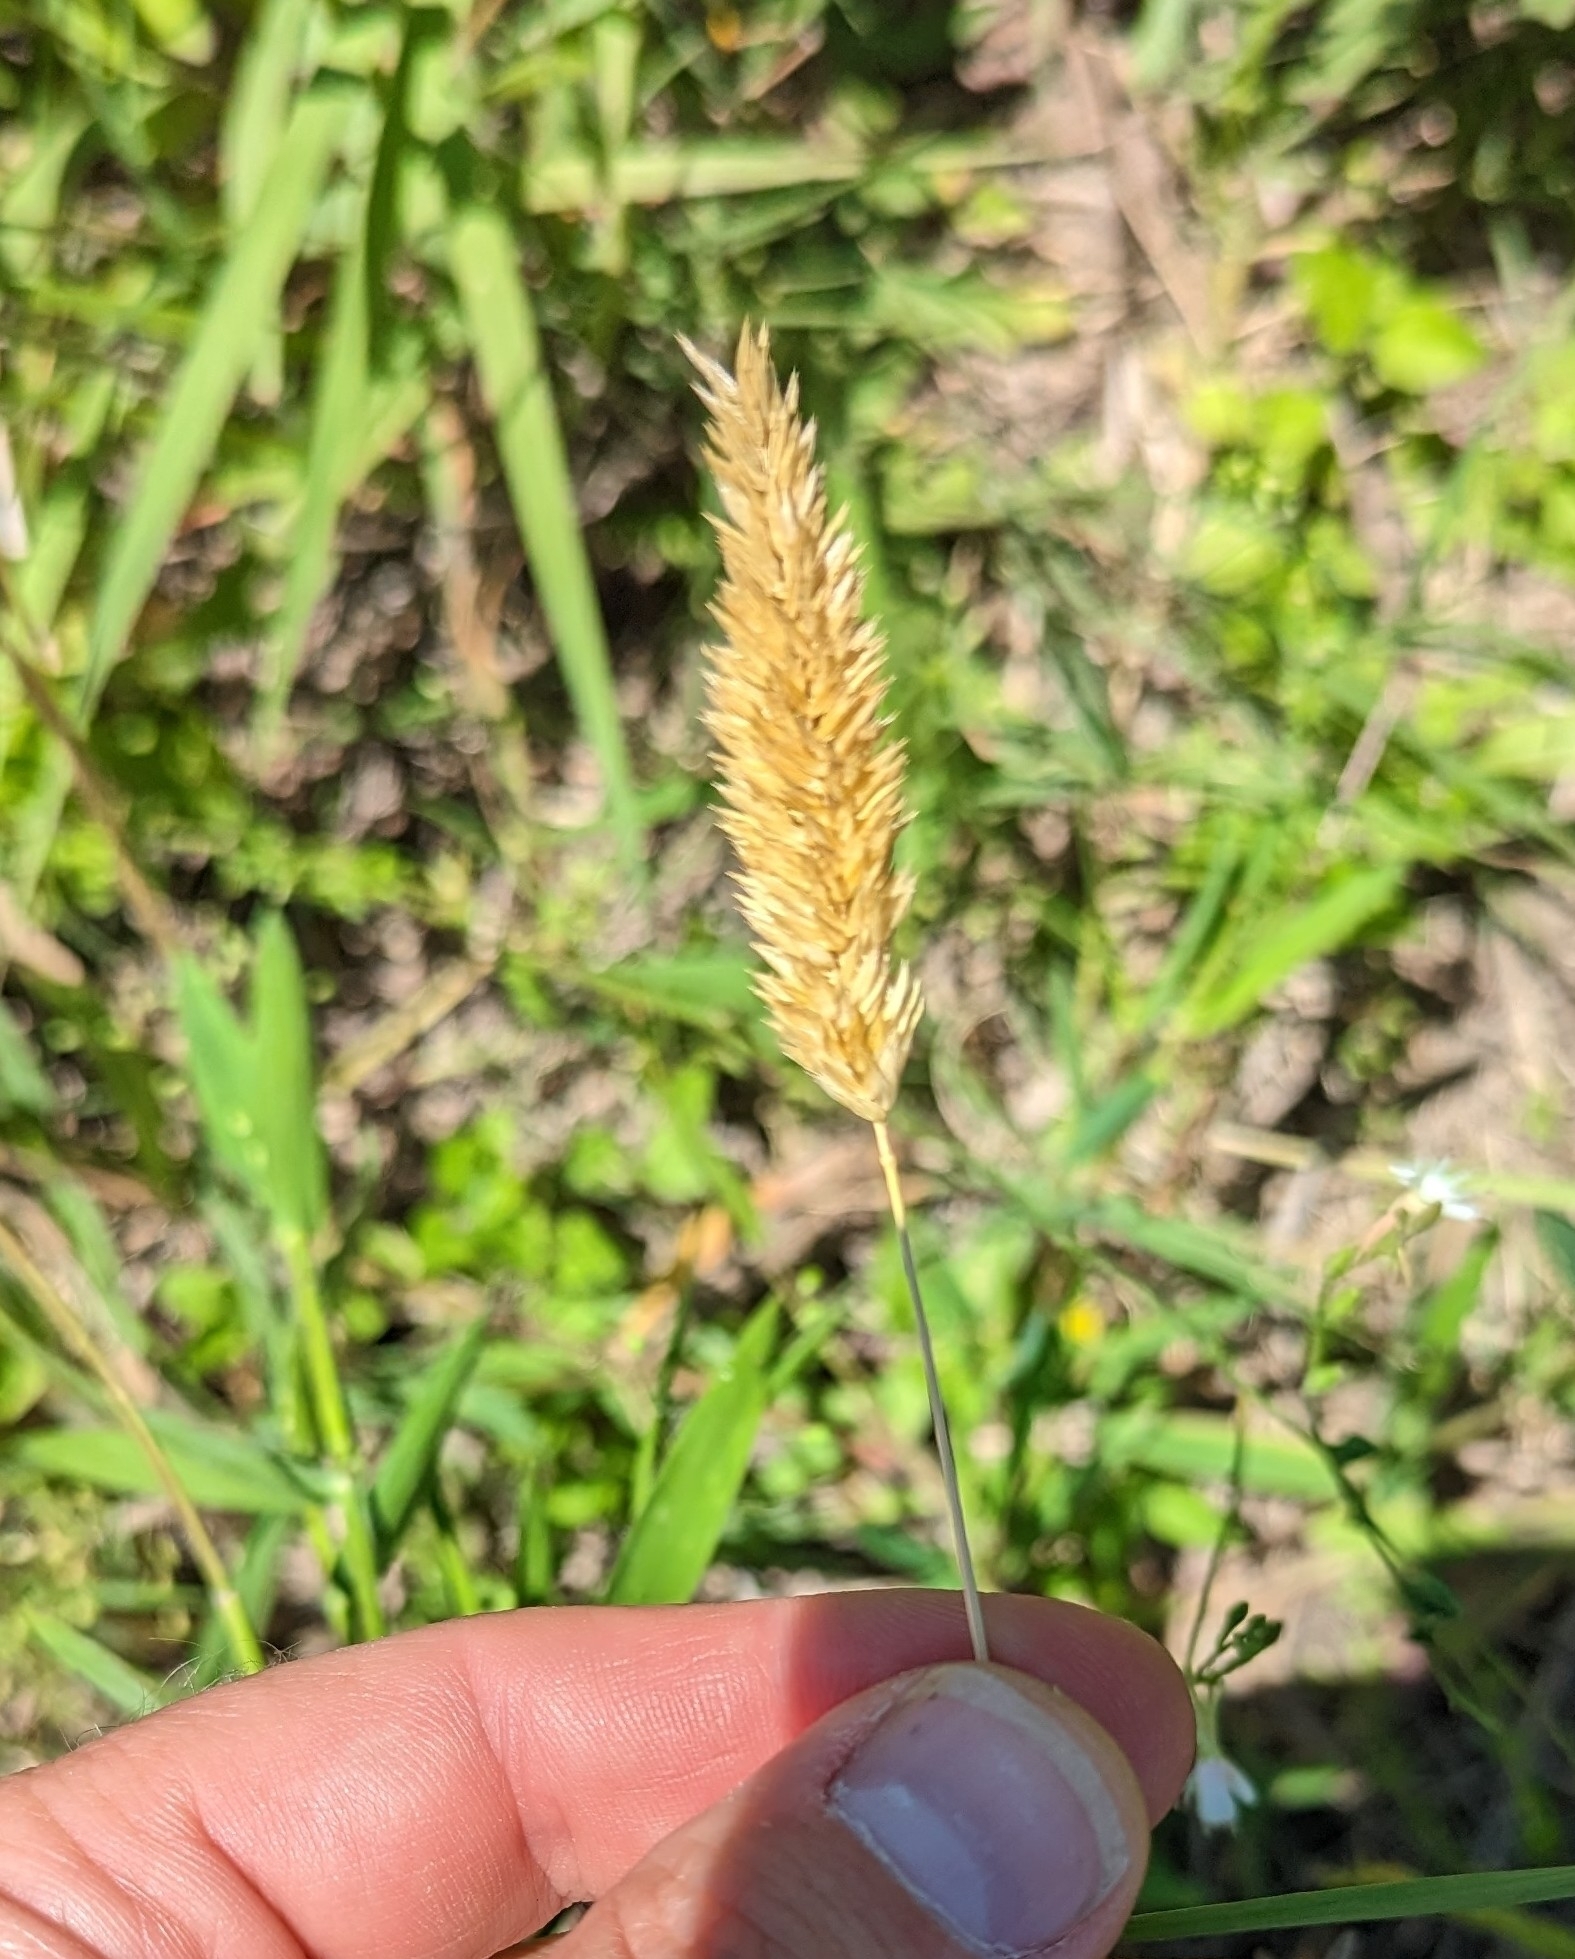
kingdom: Plantae
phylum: Tracheophyta
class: Liliopsida
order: Poales
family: Poaceae
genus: Phalaris
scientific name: Phalaris caroliniana
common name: May grass
